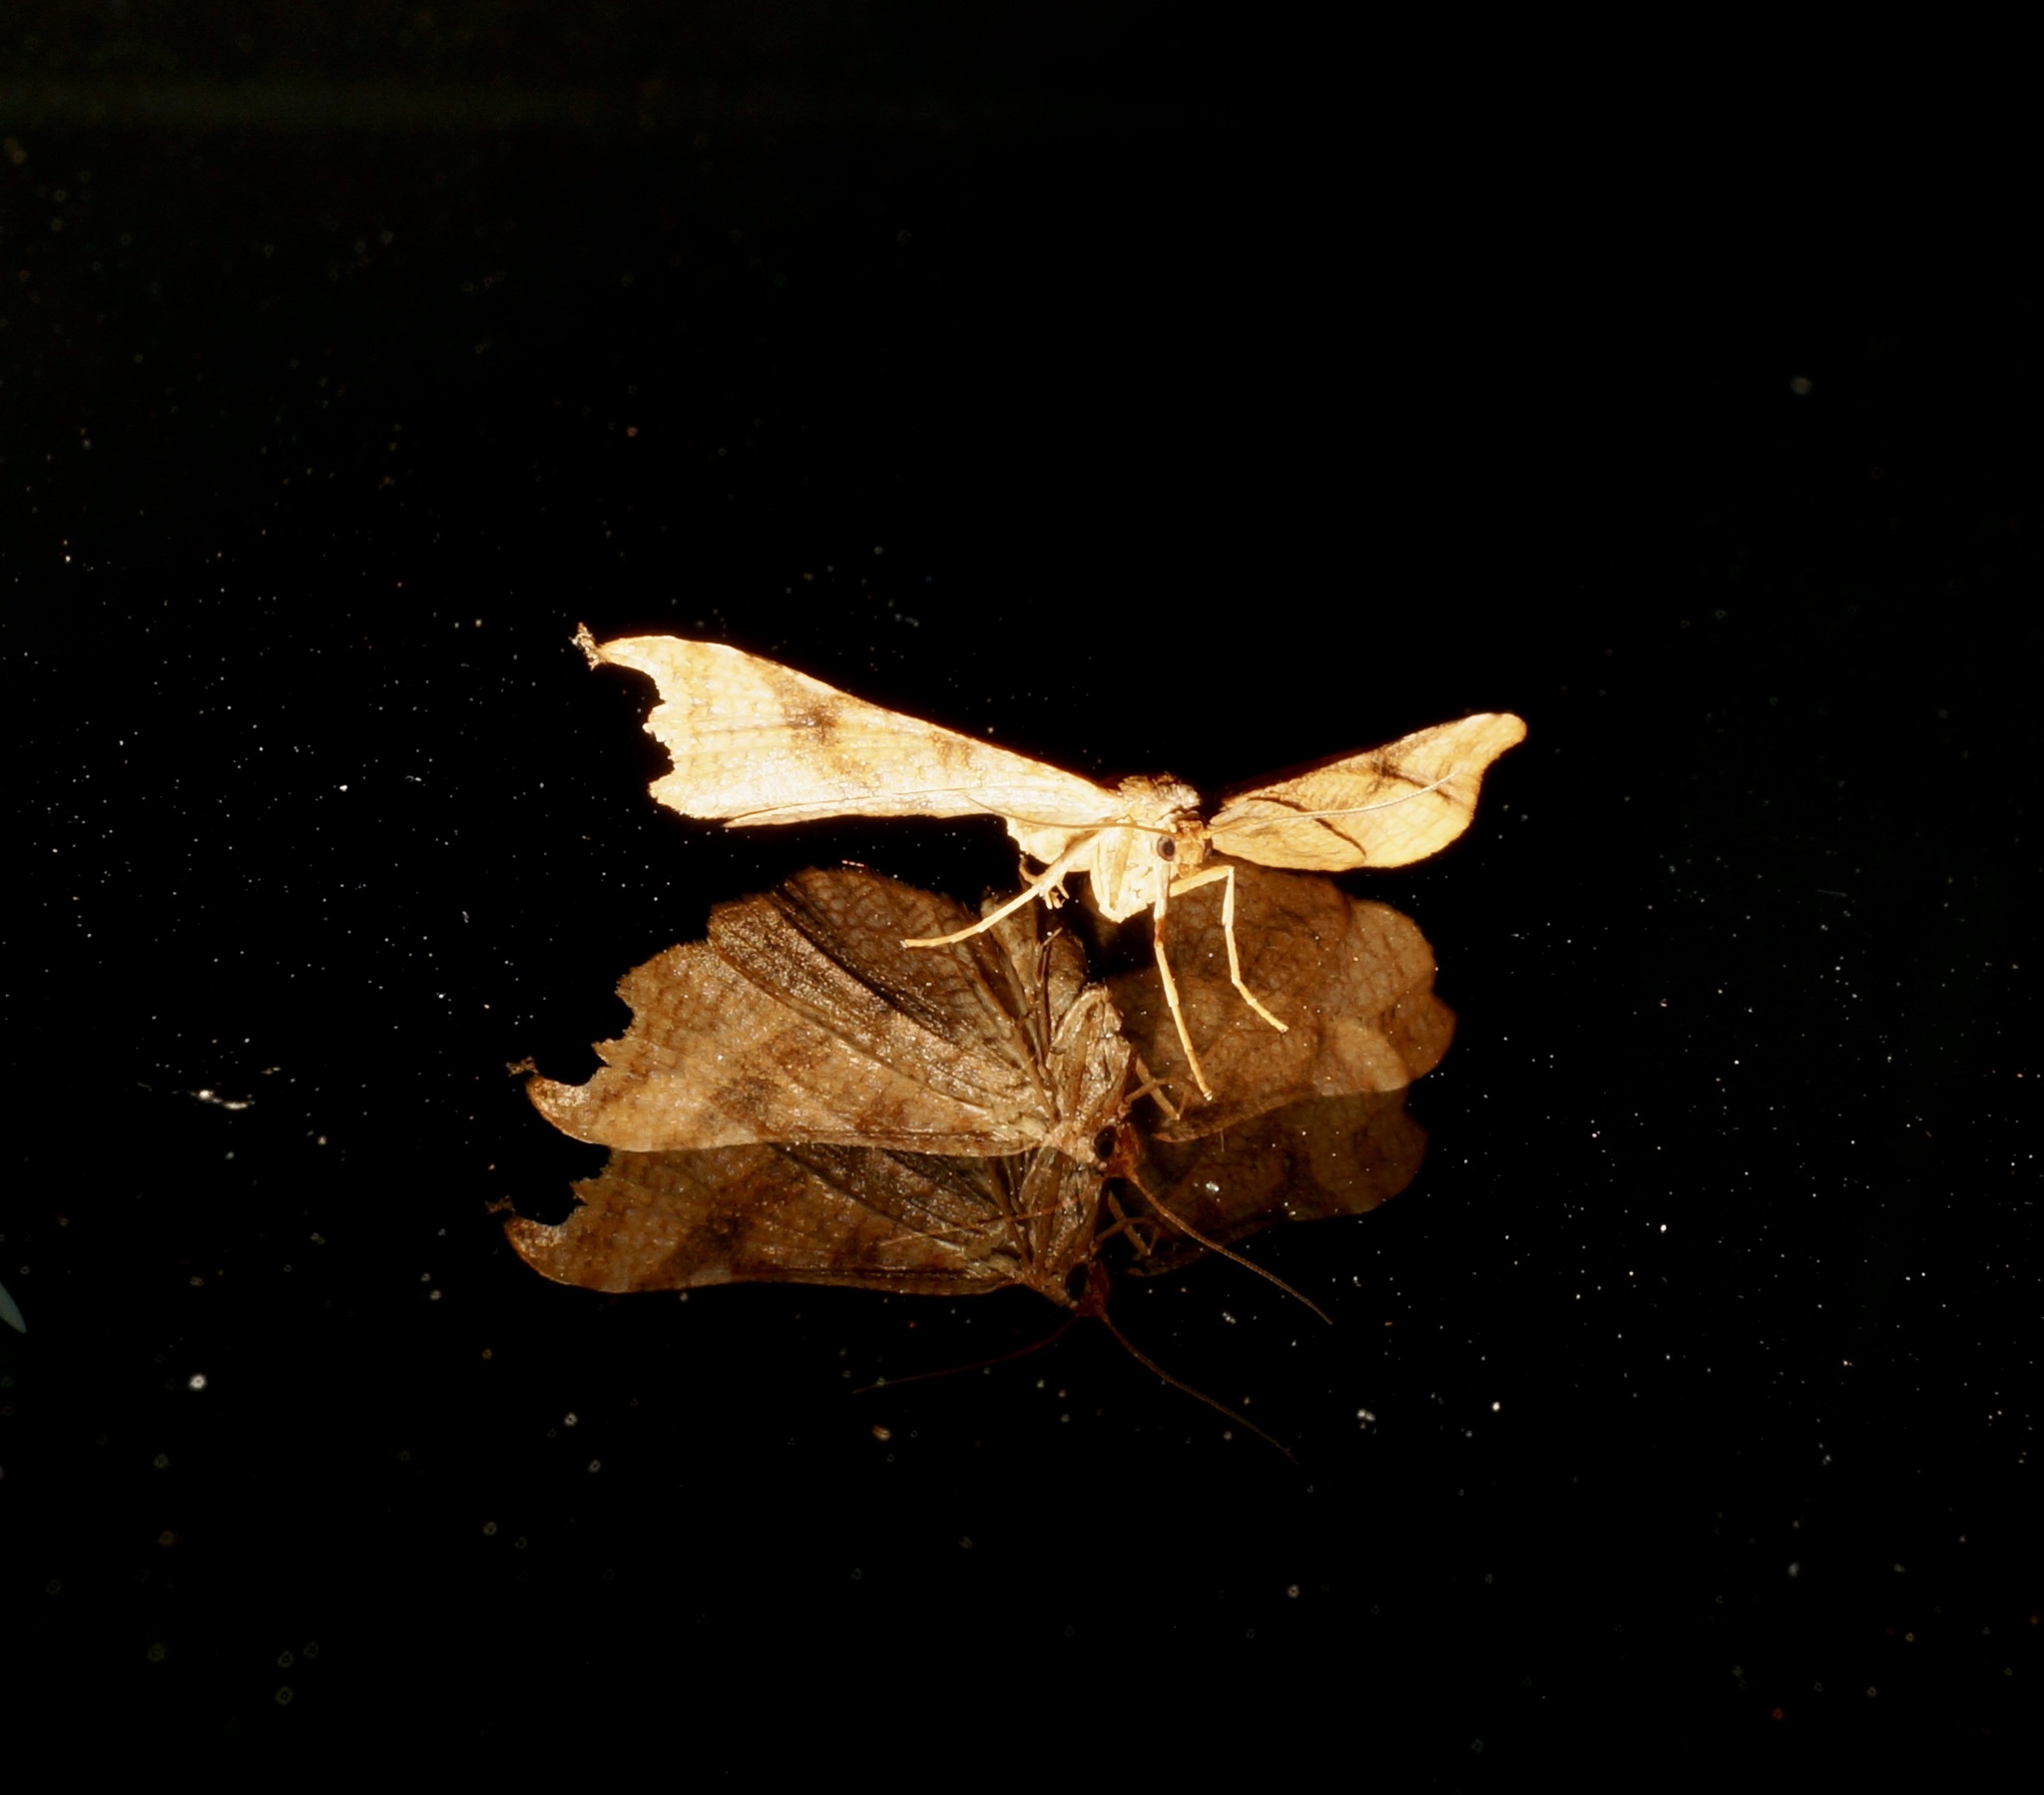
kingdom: Animalia
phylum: Arthropoda
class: Insecta
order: Lepidoptera
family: Thyrididae
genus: Morova
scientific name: Morova subfasciata
